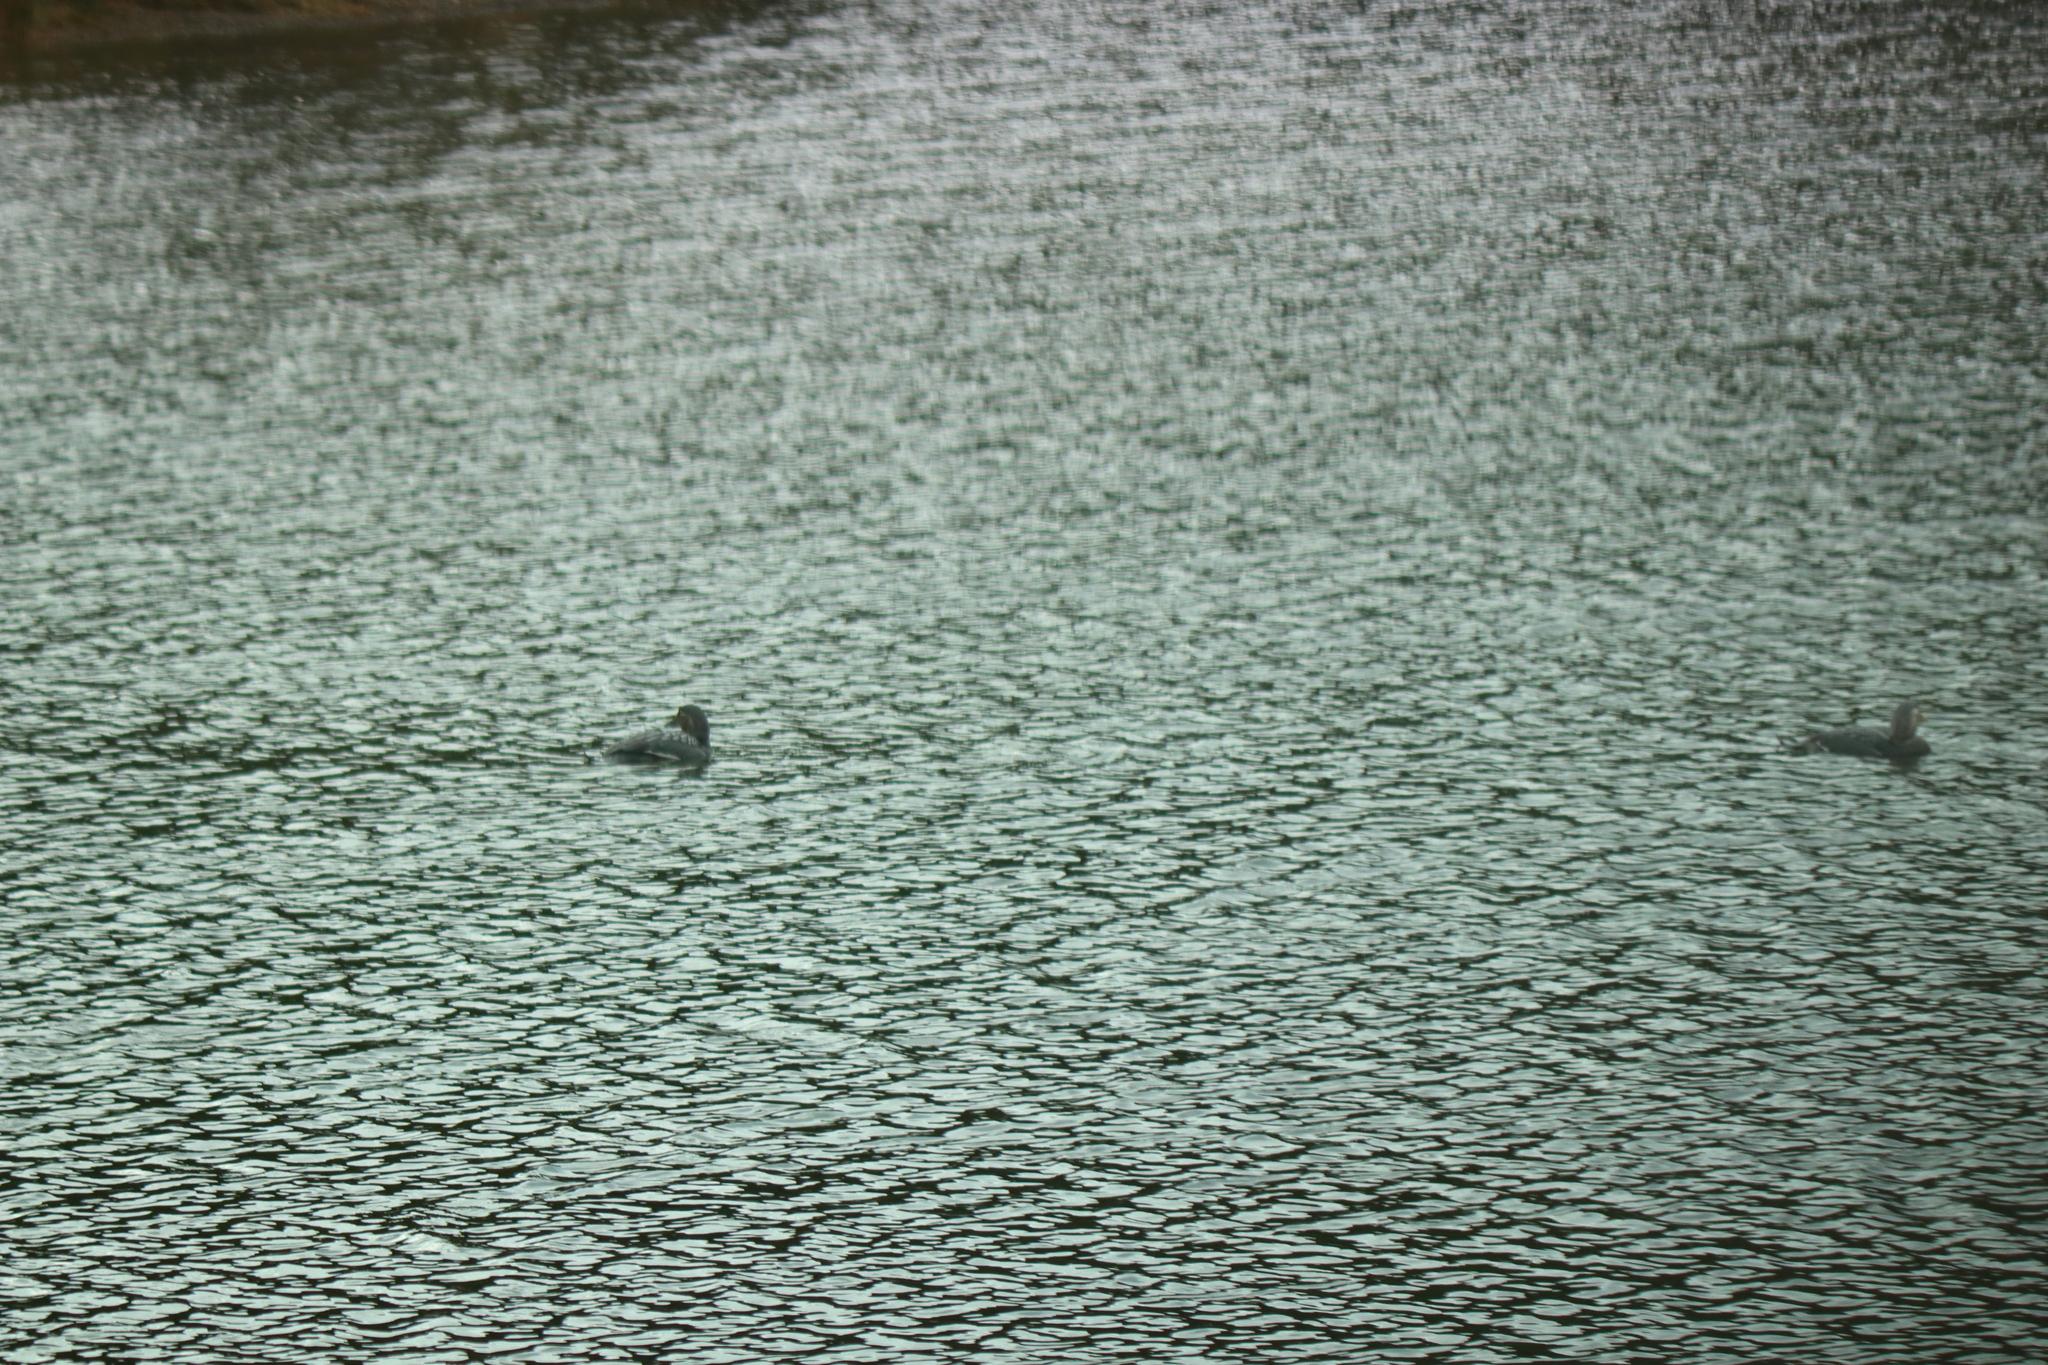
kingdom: Animalia
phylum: Chordata
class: Aves
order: Anseriformes
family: Anatidae
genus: Tachyeres
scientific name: Tachyeres patachonicus
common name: Flying steamer duck
